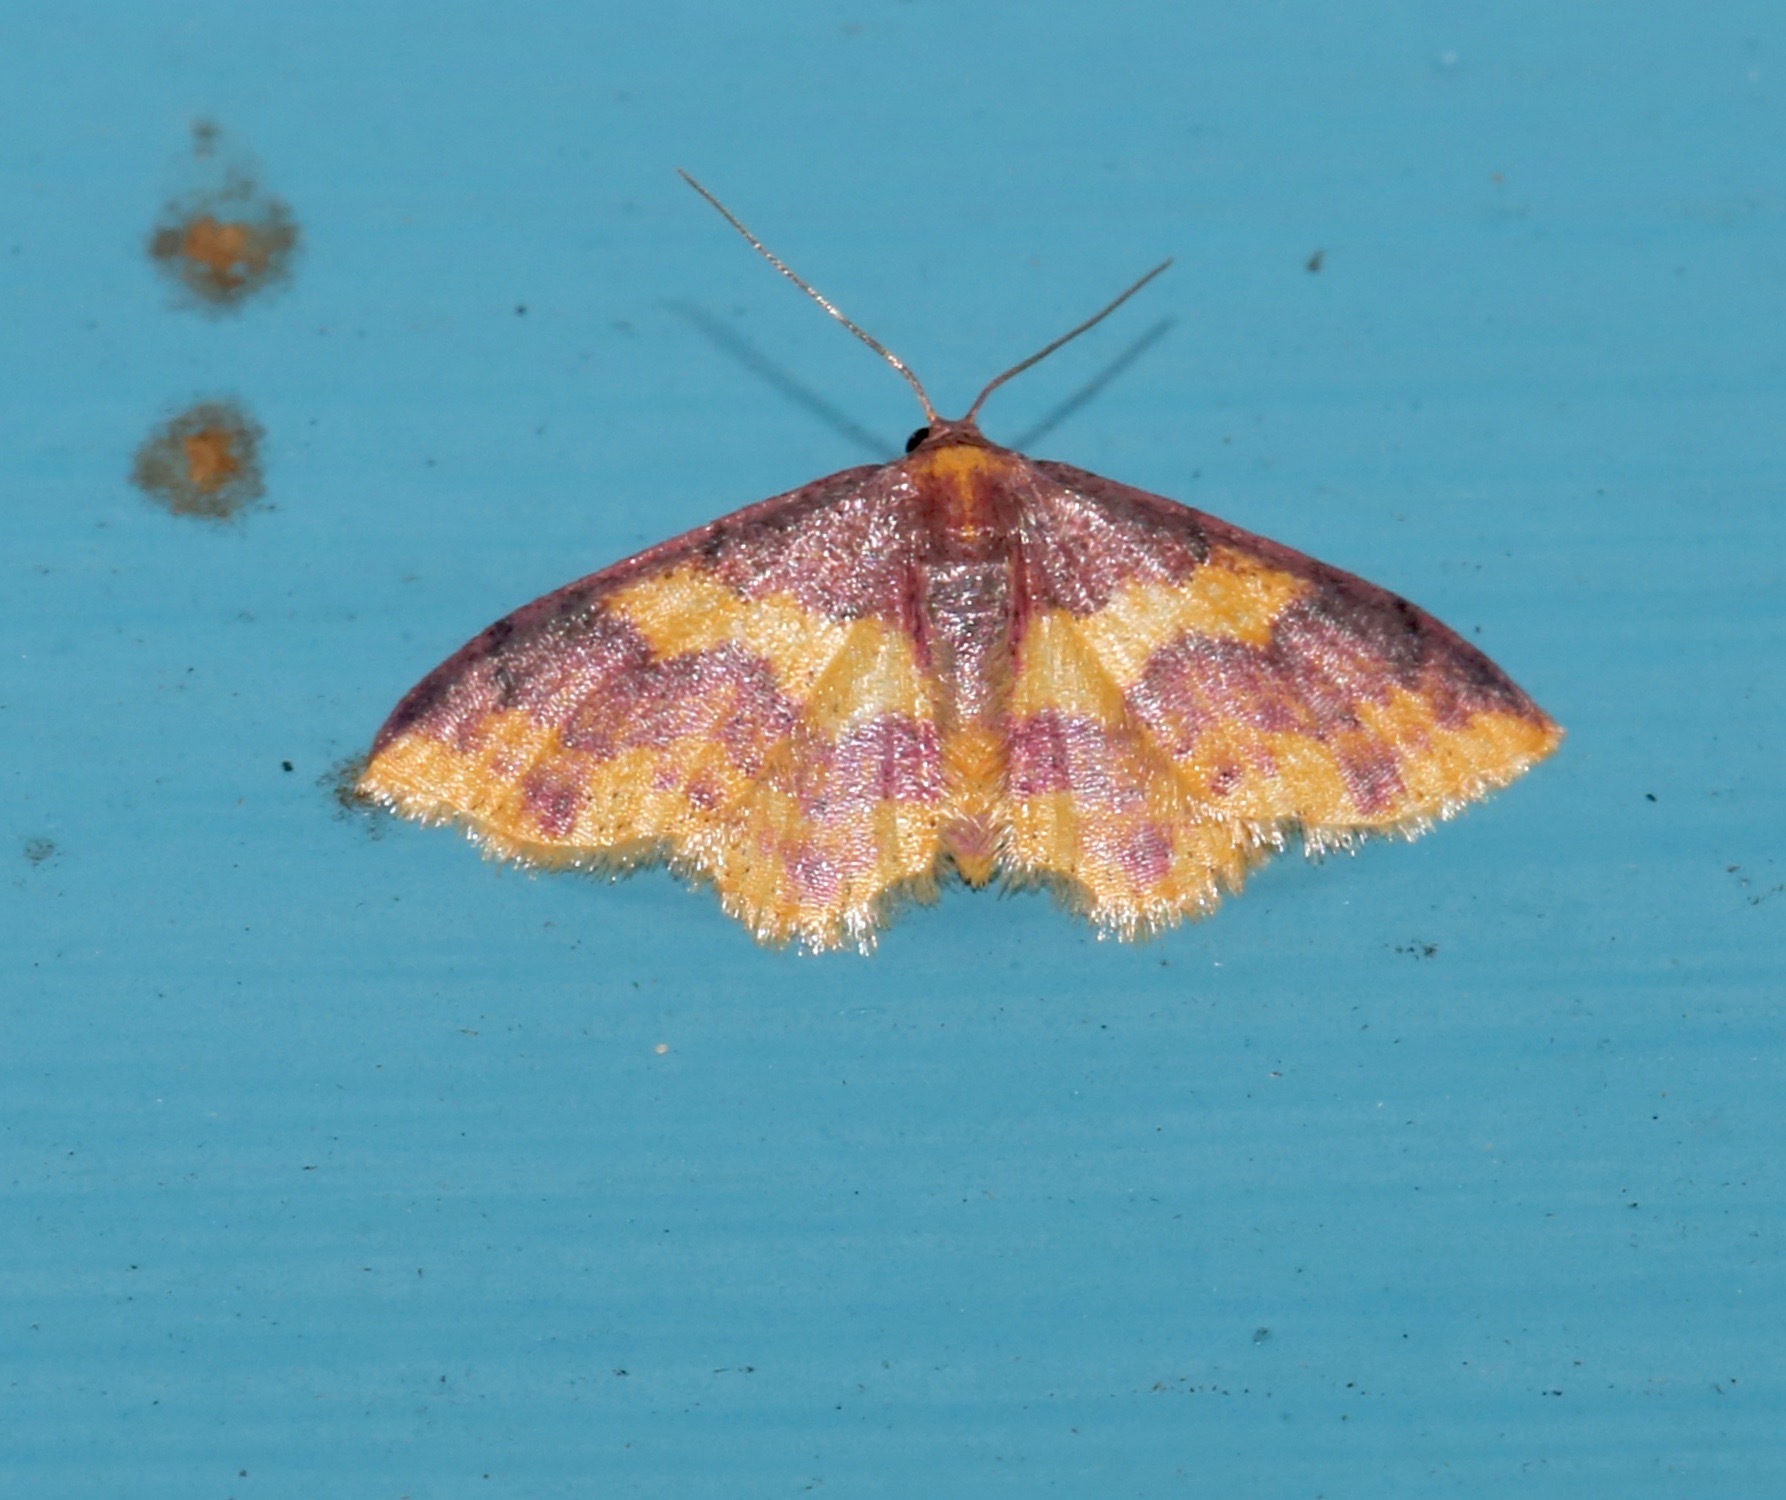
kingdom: Animalia
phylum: Arthropoda
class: Insecta
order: Lepidoptera
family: Geometridae
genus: Lophosis
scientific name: Lophosis labeculata
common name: Stained lophosis moth
